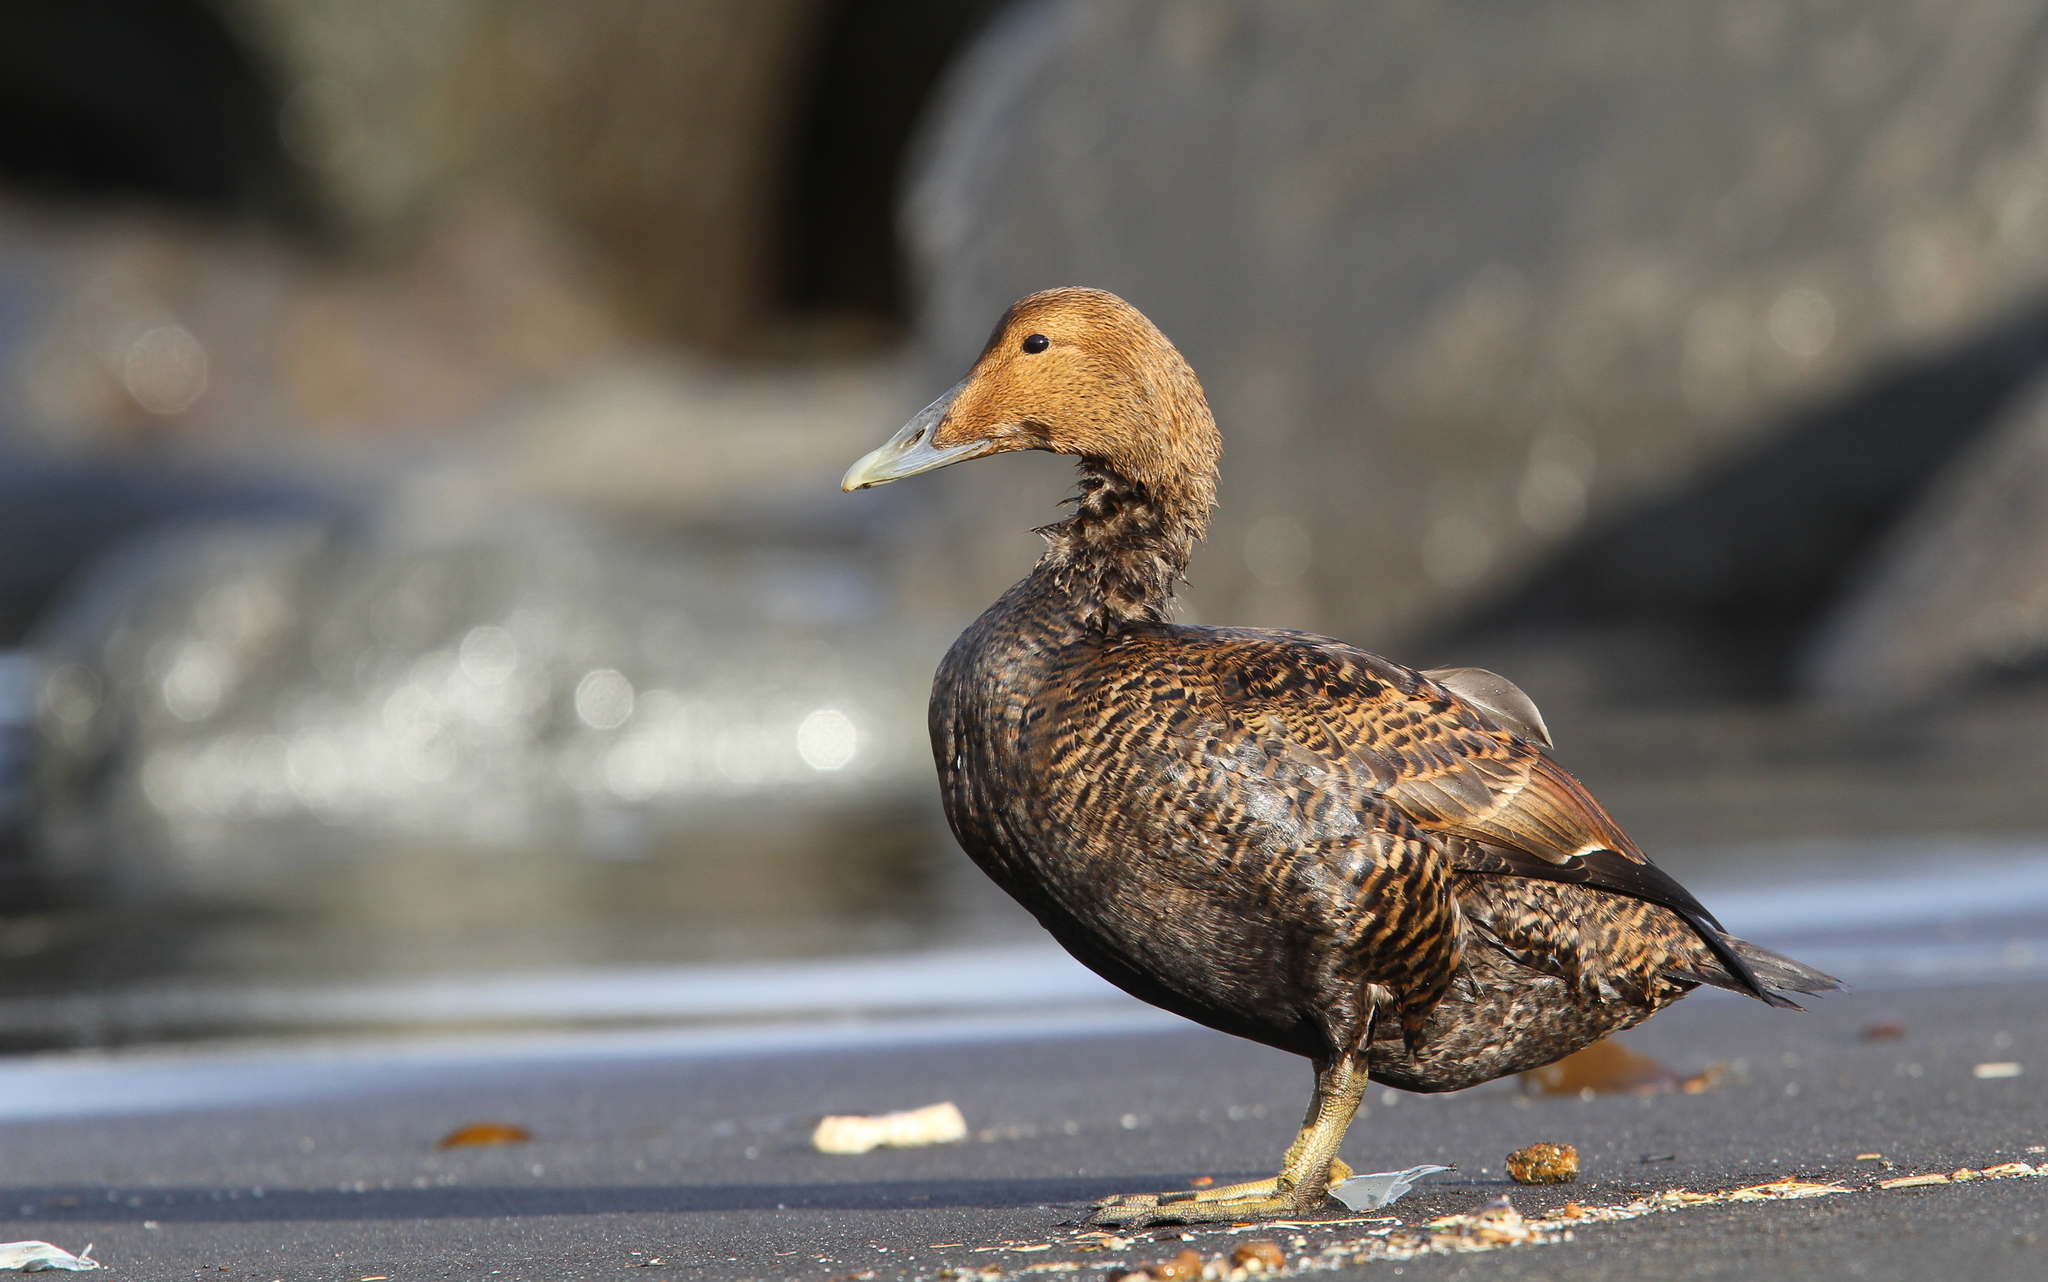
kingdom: Animalia
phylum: Chordata
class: Aves
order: Anseriformes
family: Anatidae
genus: Somateria
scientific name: Somateria mollissima
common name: Common eider
